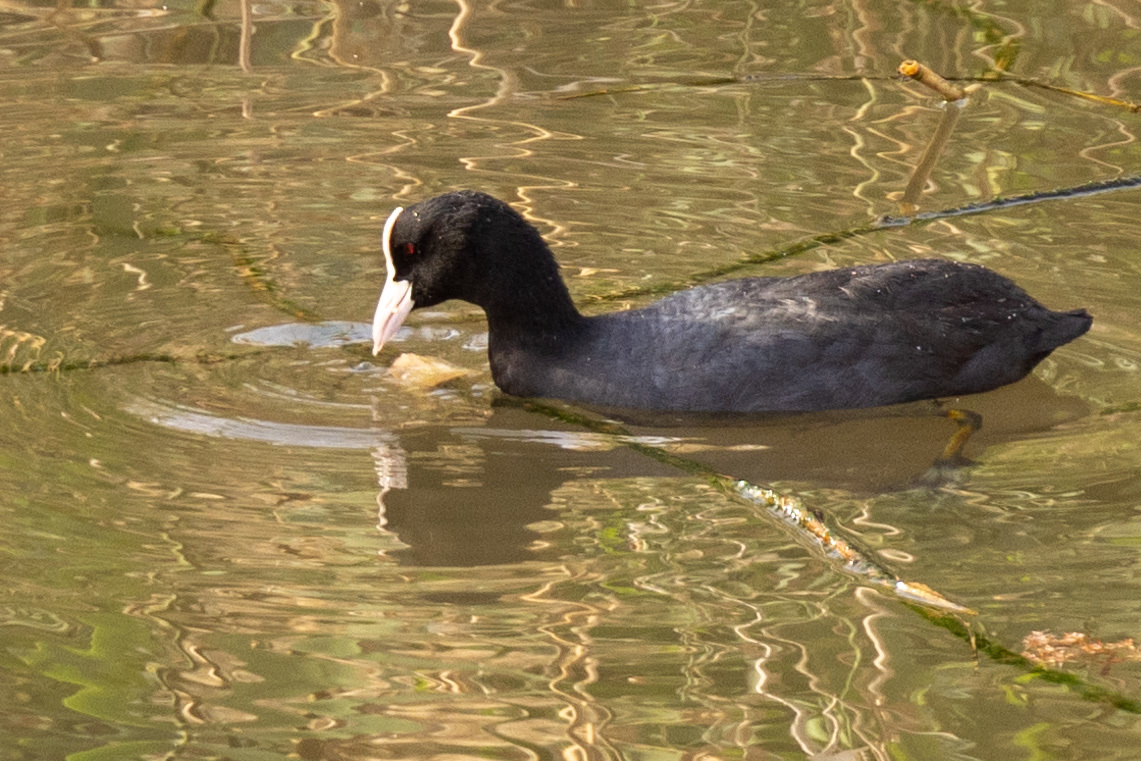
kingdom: Animalia
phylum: Chordata
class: Aves
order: Gruiformes
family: Rallidae
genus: Fulica
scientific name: Fulica atra
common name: Eurasian coot
